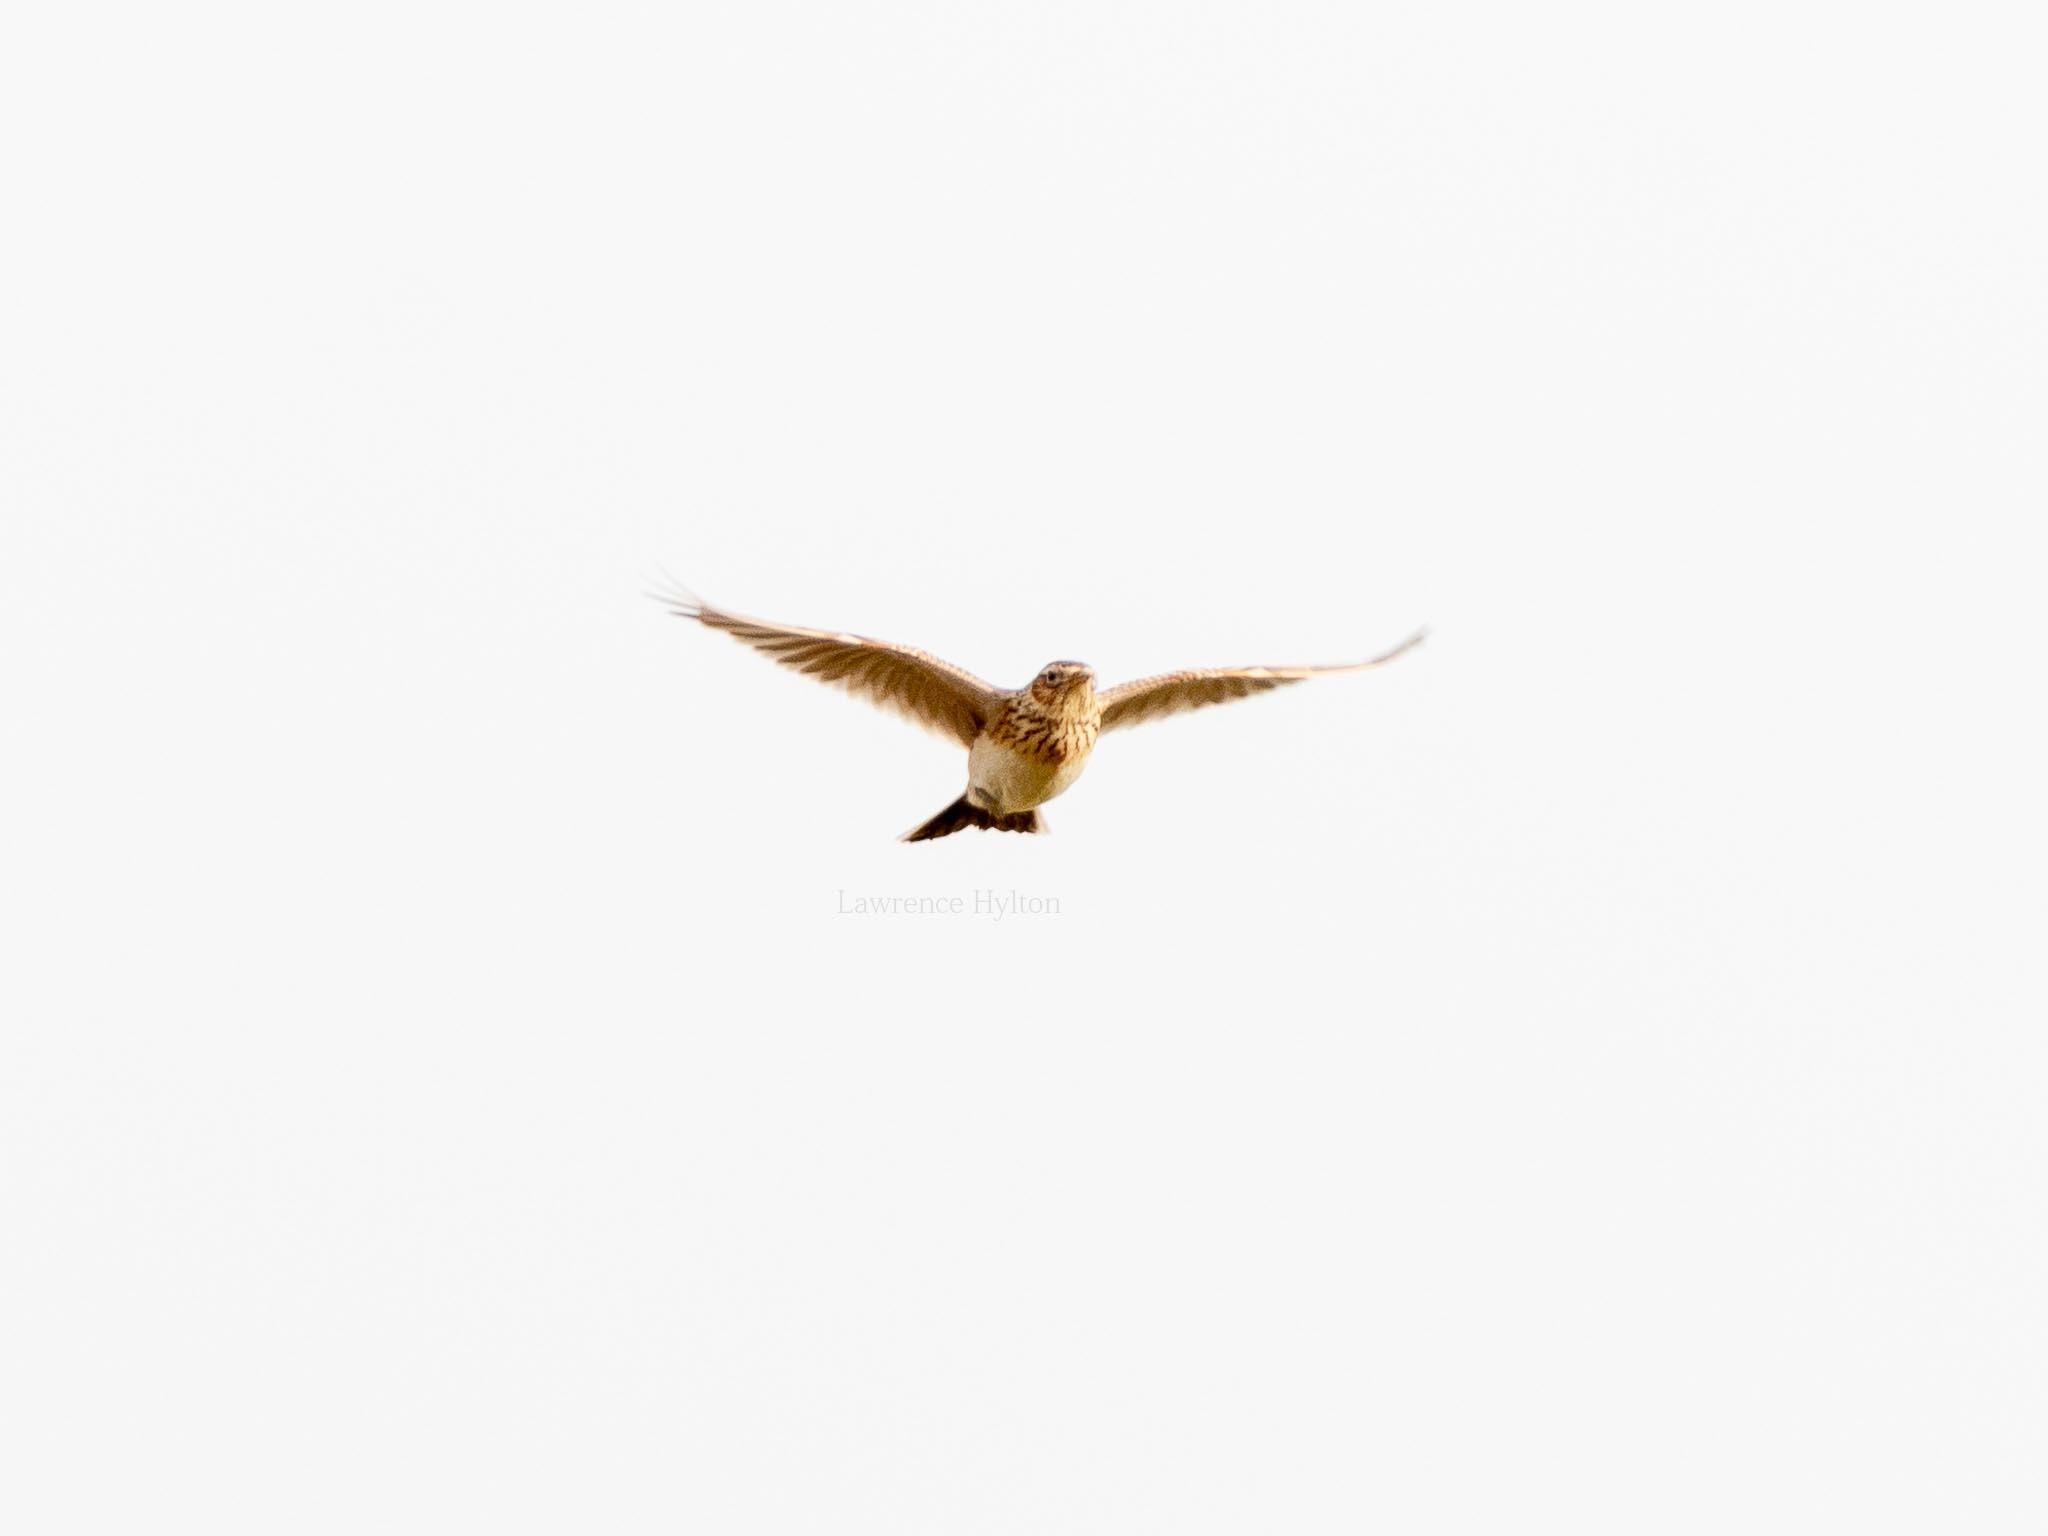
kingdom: Animalia
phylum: Chordata
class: Aves
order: Passeriformes
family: Alaudidae
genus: Alauda
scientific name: Alauda arvensis
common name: Eurasian skylark
